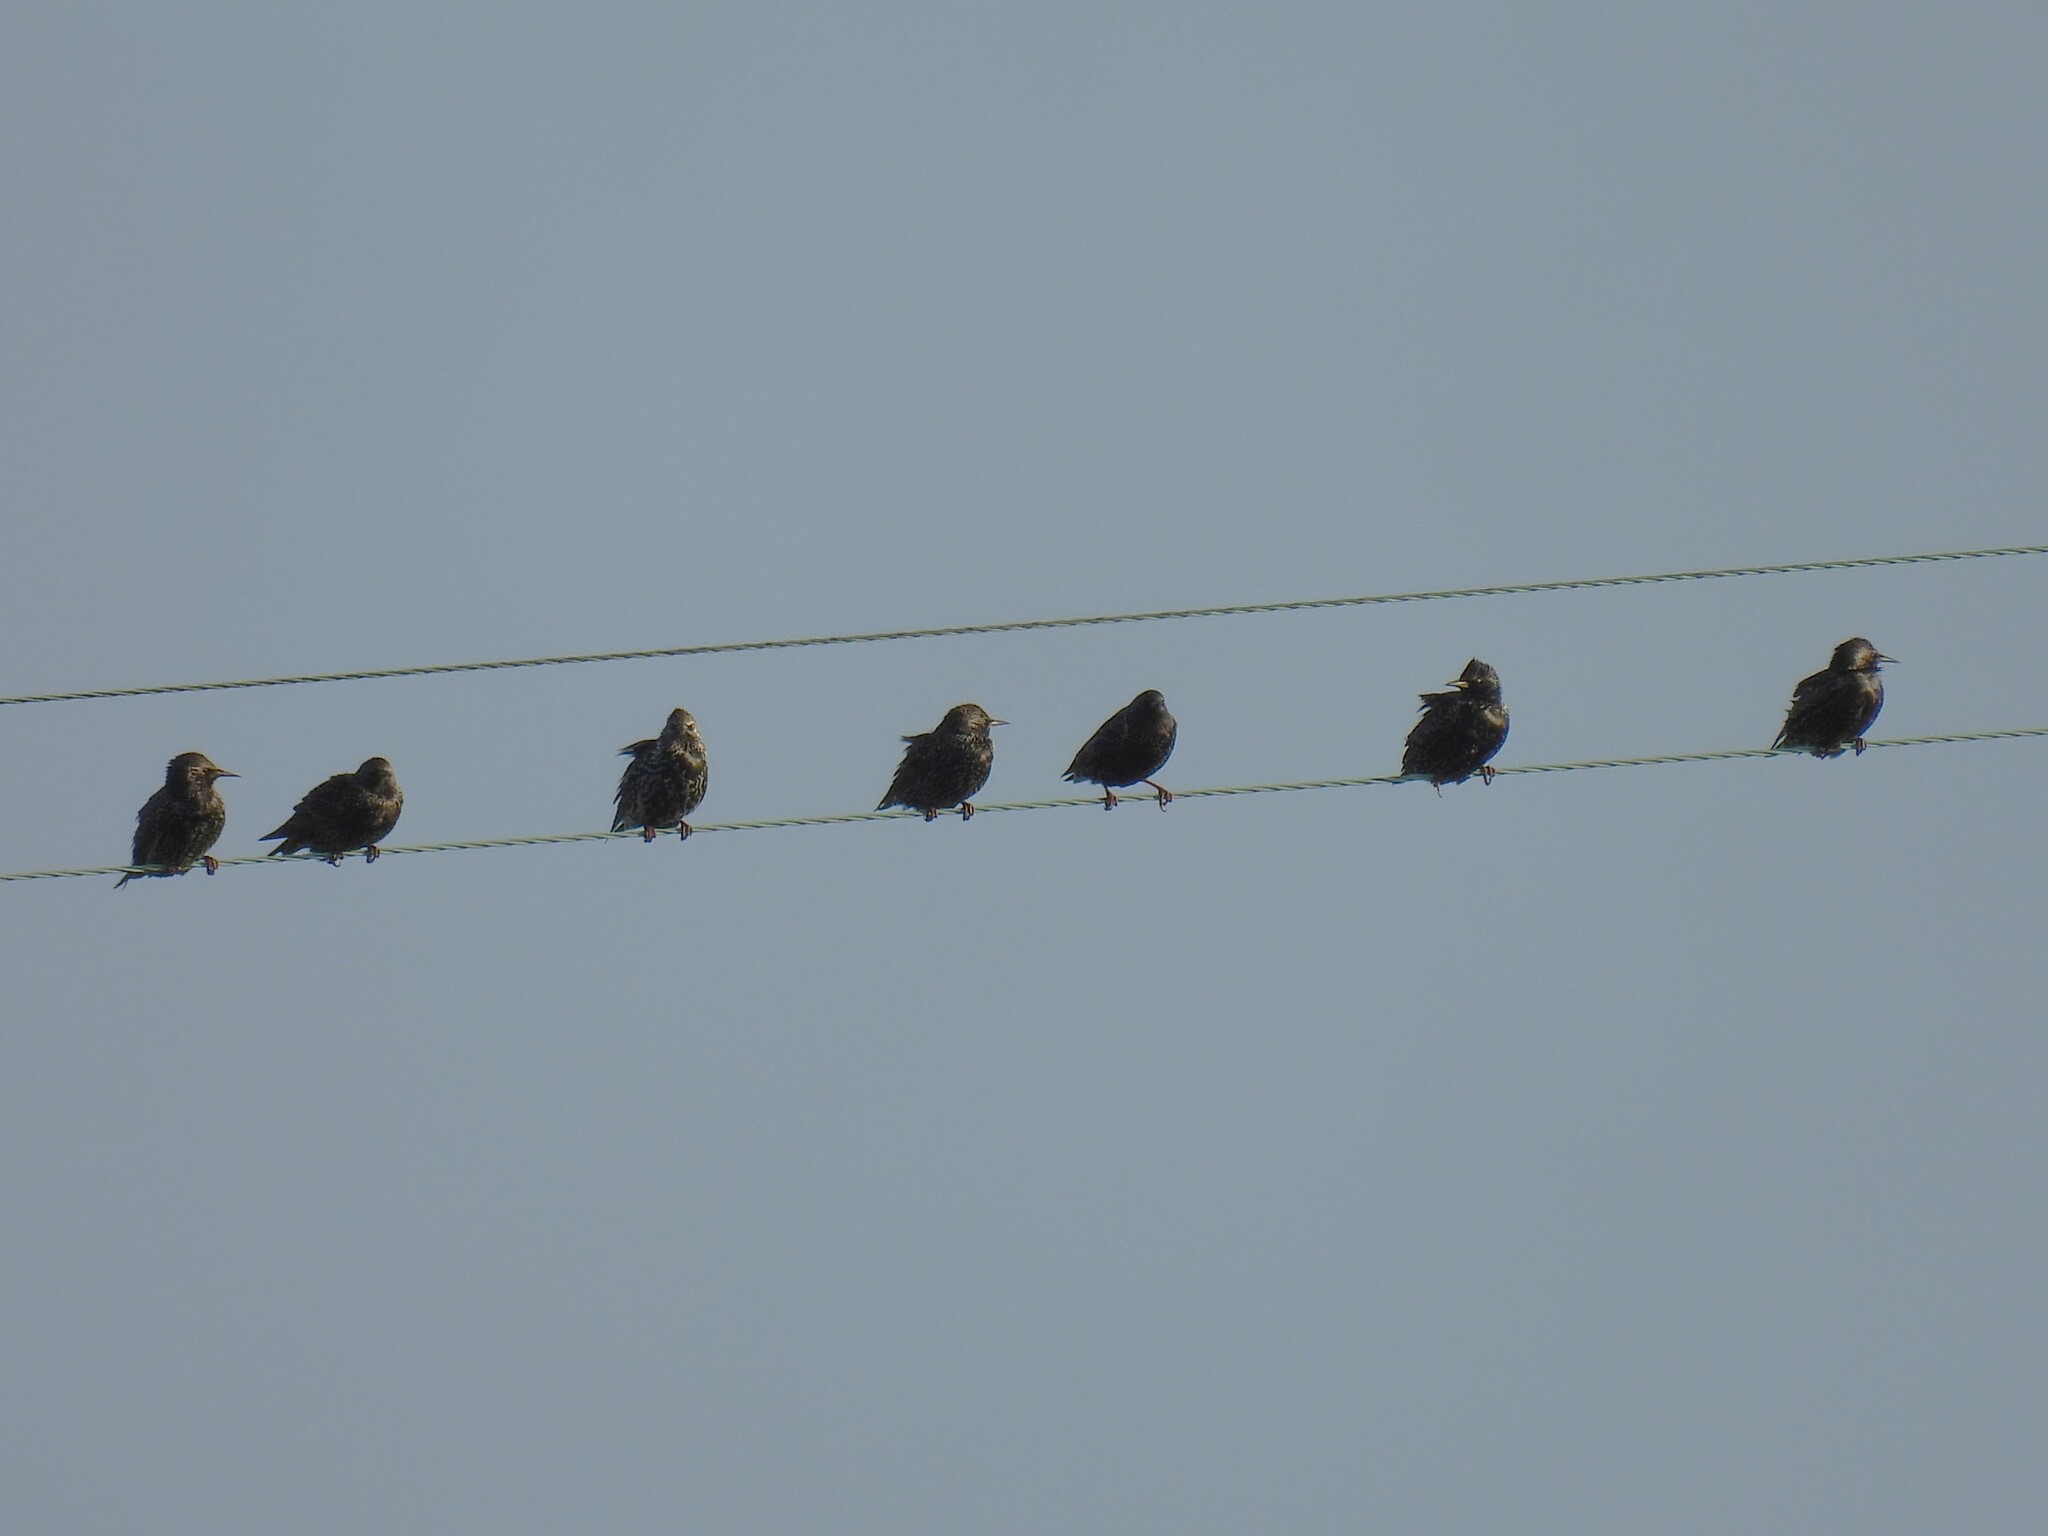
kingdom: Animalia
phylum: Chordata
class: Aves
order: Passeriformes
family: Sturnidae
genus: Sturnus
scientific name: Sturnus vulgaris
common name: Common starling
